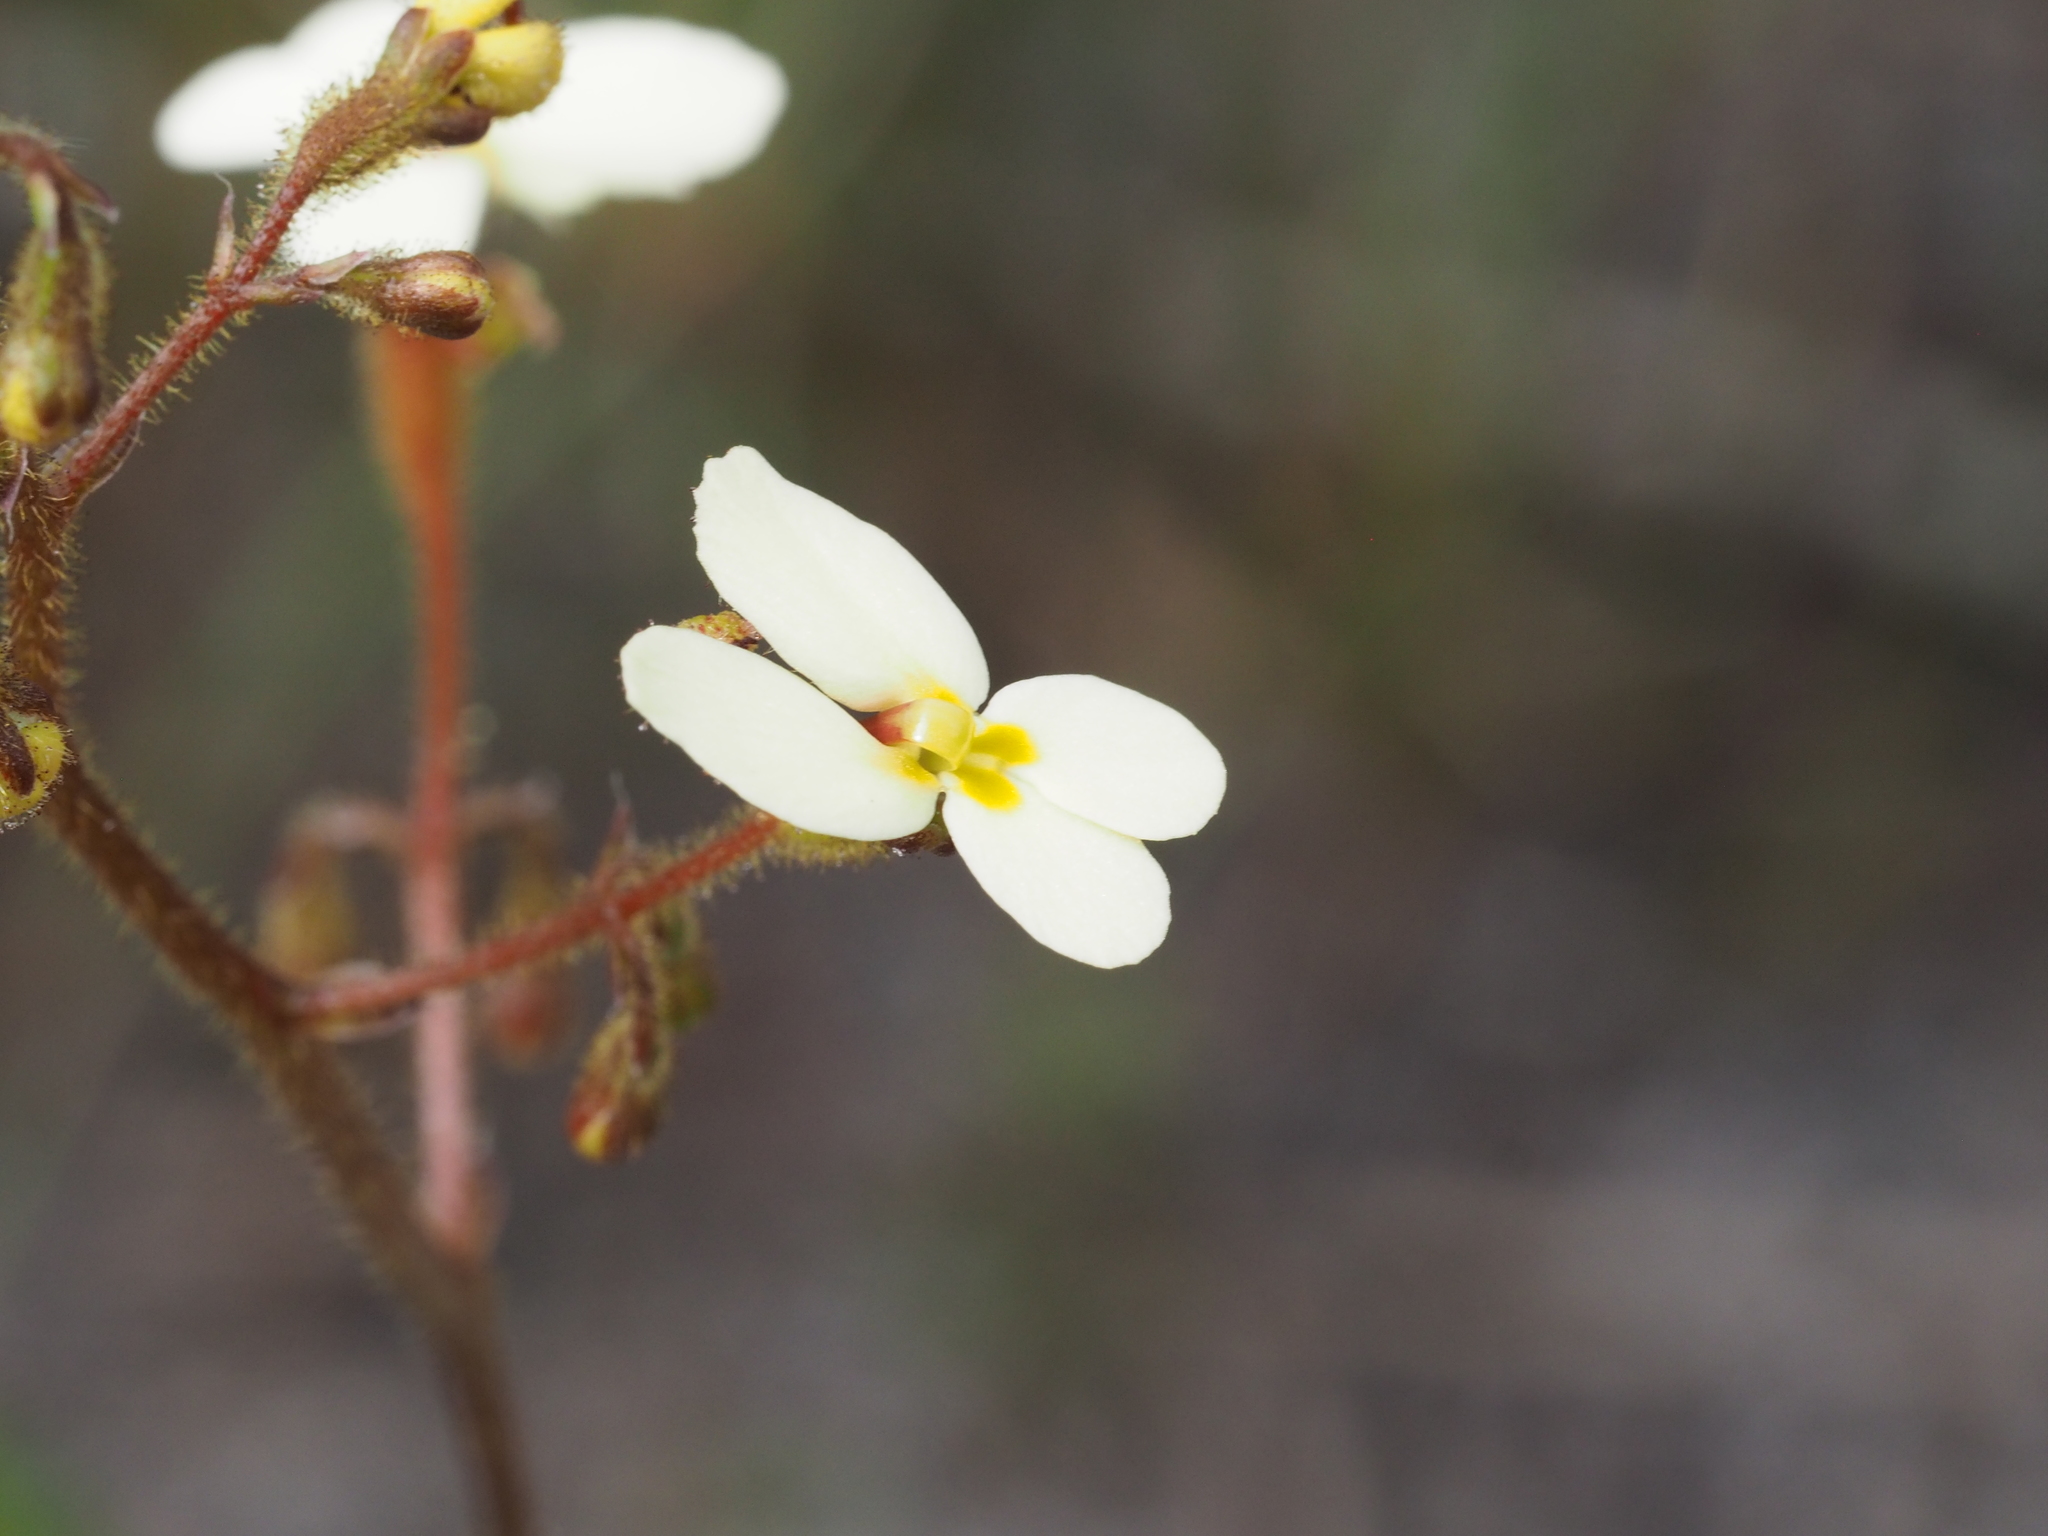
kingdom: Plantae
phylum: Tracheophyta
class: Magnoliopsida
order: Asterales
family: Stylidiaceae
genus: Stylidium
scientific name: Stylidium piliferum
